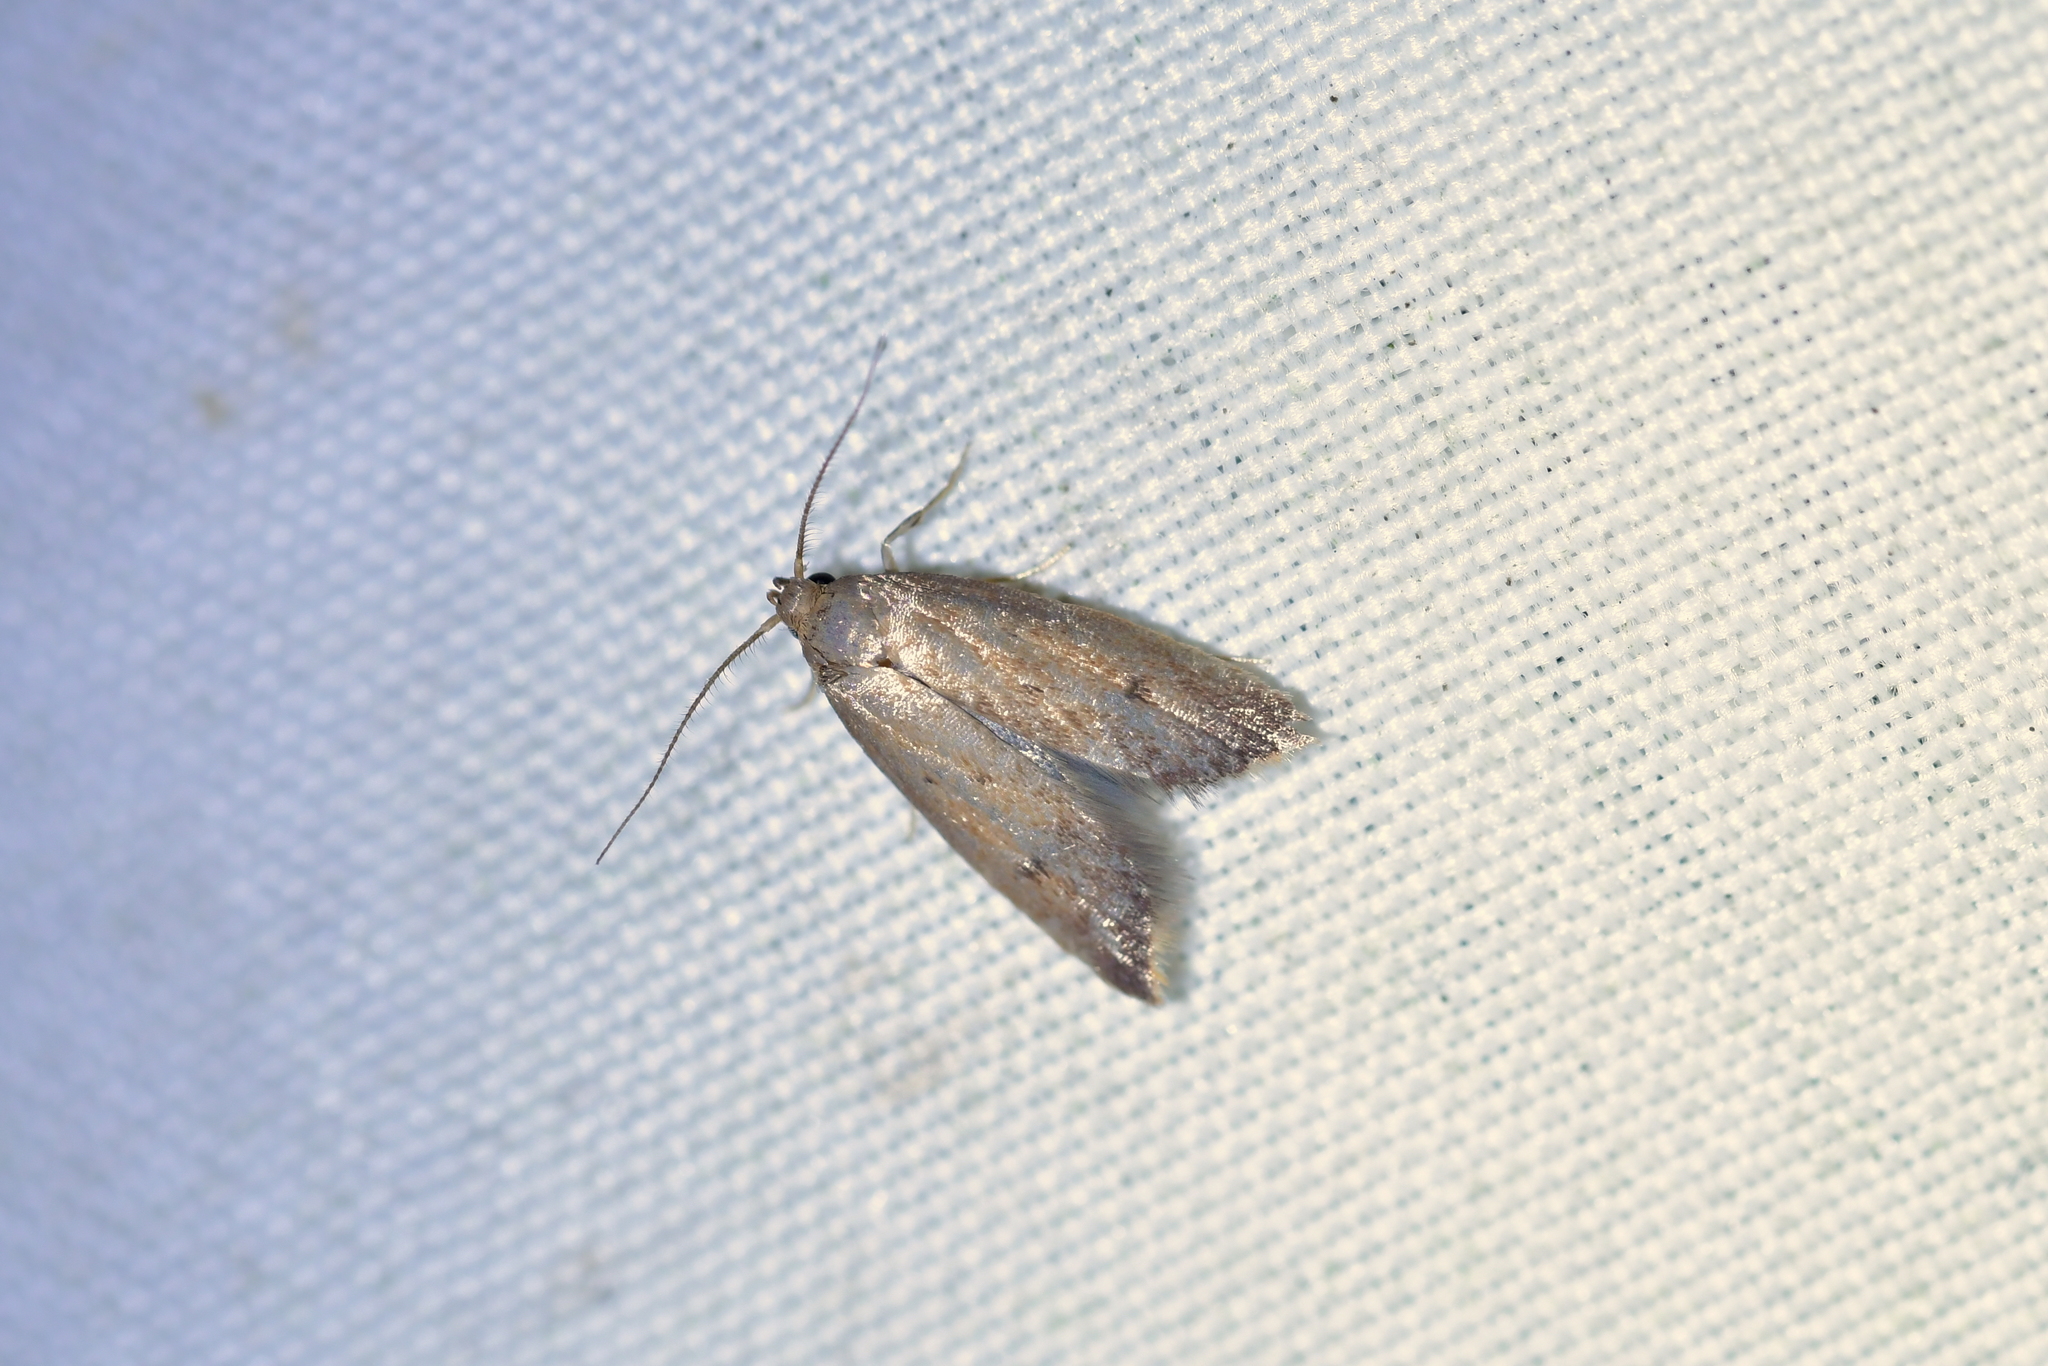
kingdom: Animalia
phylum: Arthropoda
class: Insecta
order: Lepidoptera
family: Oecophoridae
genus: Tachystola
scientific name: Tachystola acroxantha
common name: Ruddy streak
